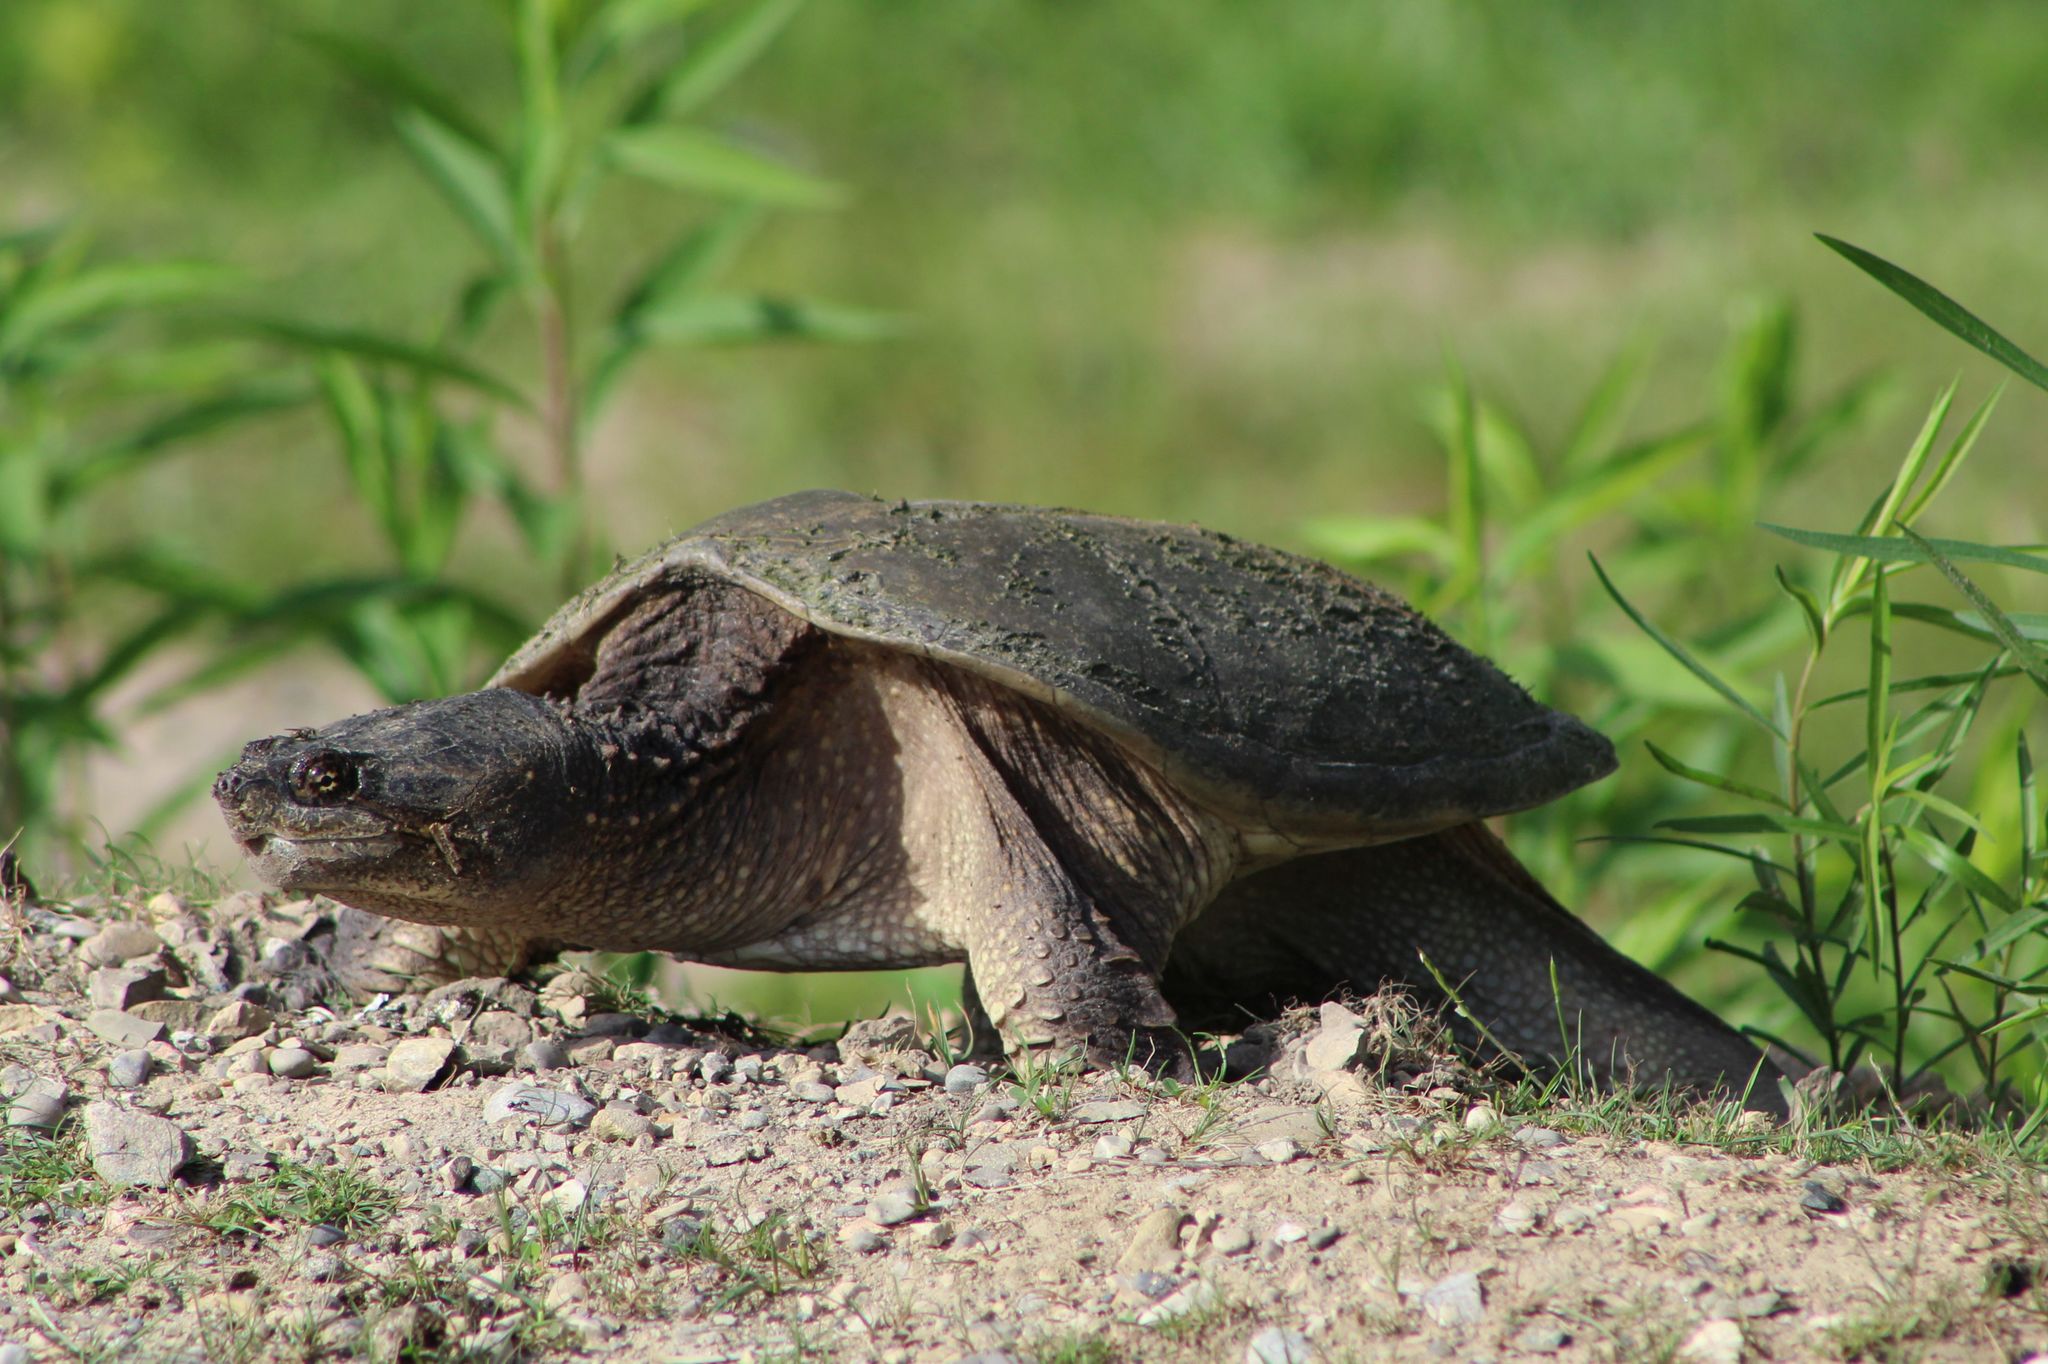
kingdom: Animalia
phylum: Chordata
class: Testudines
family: Chelydridae
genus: Chelydra
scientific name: Chelydra serpentina
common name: Common snapping turtle
